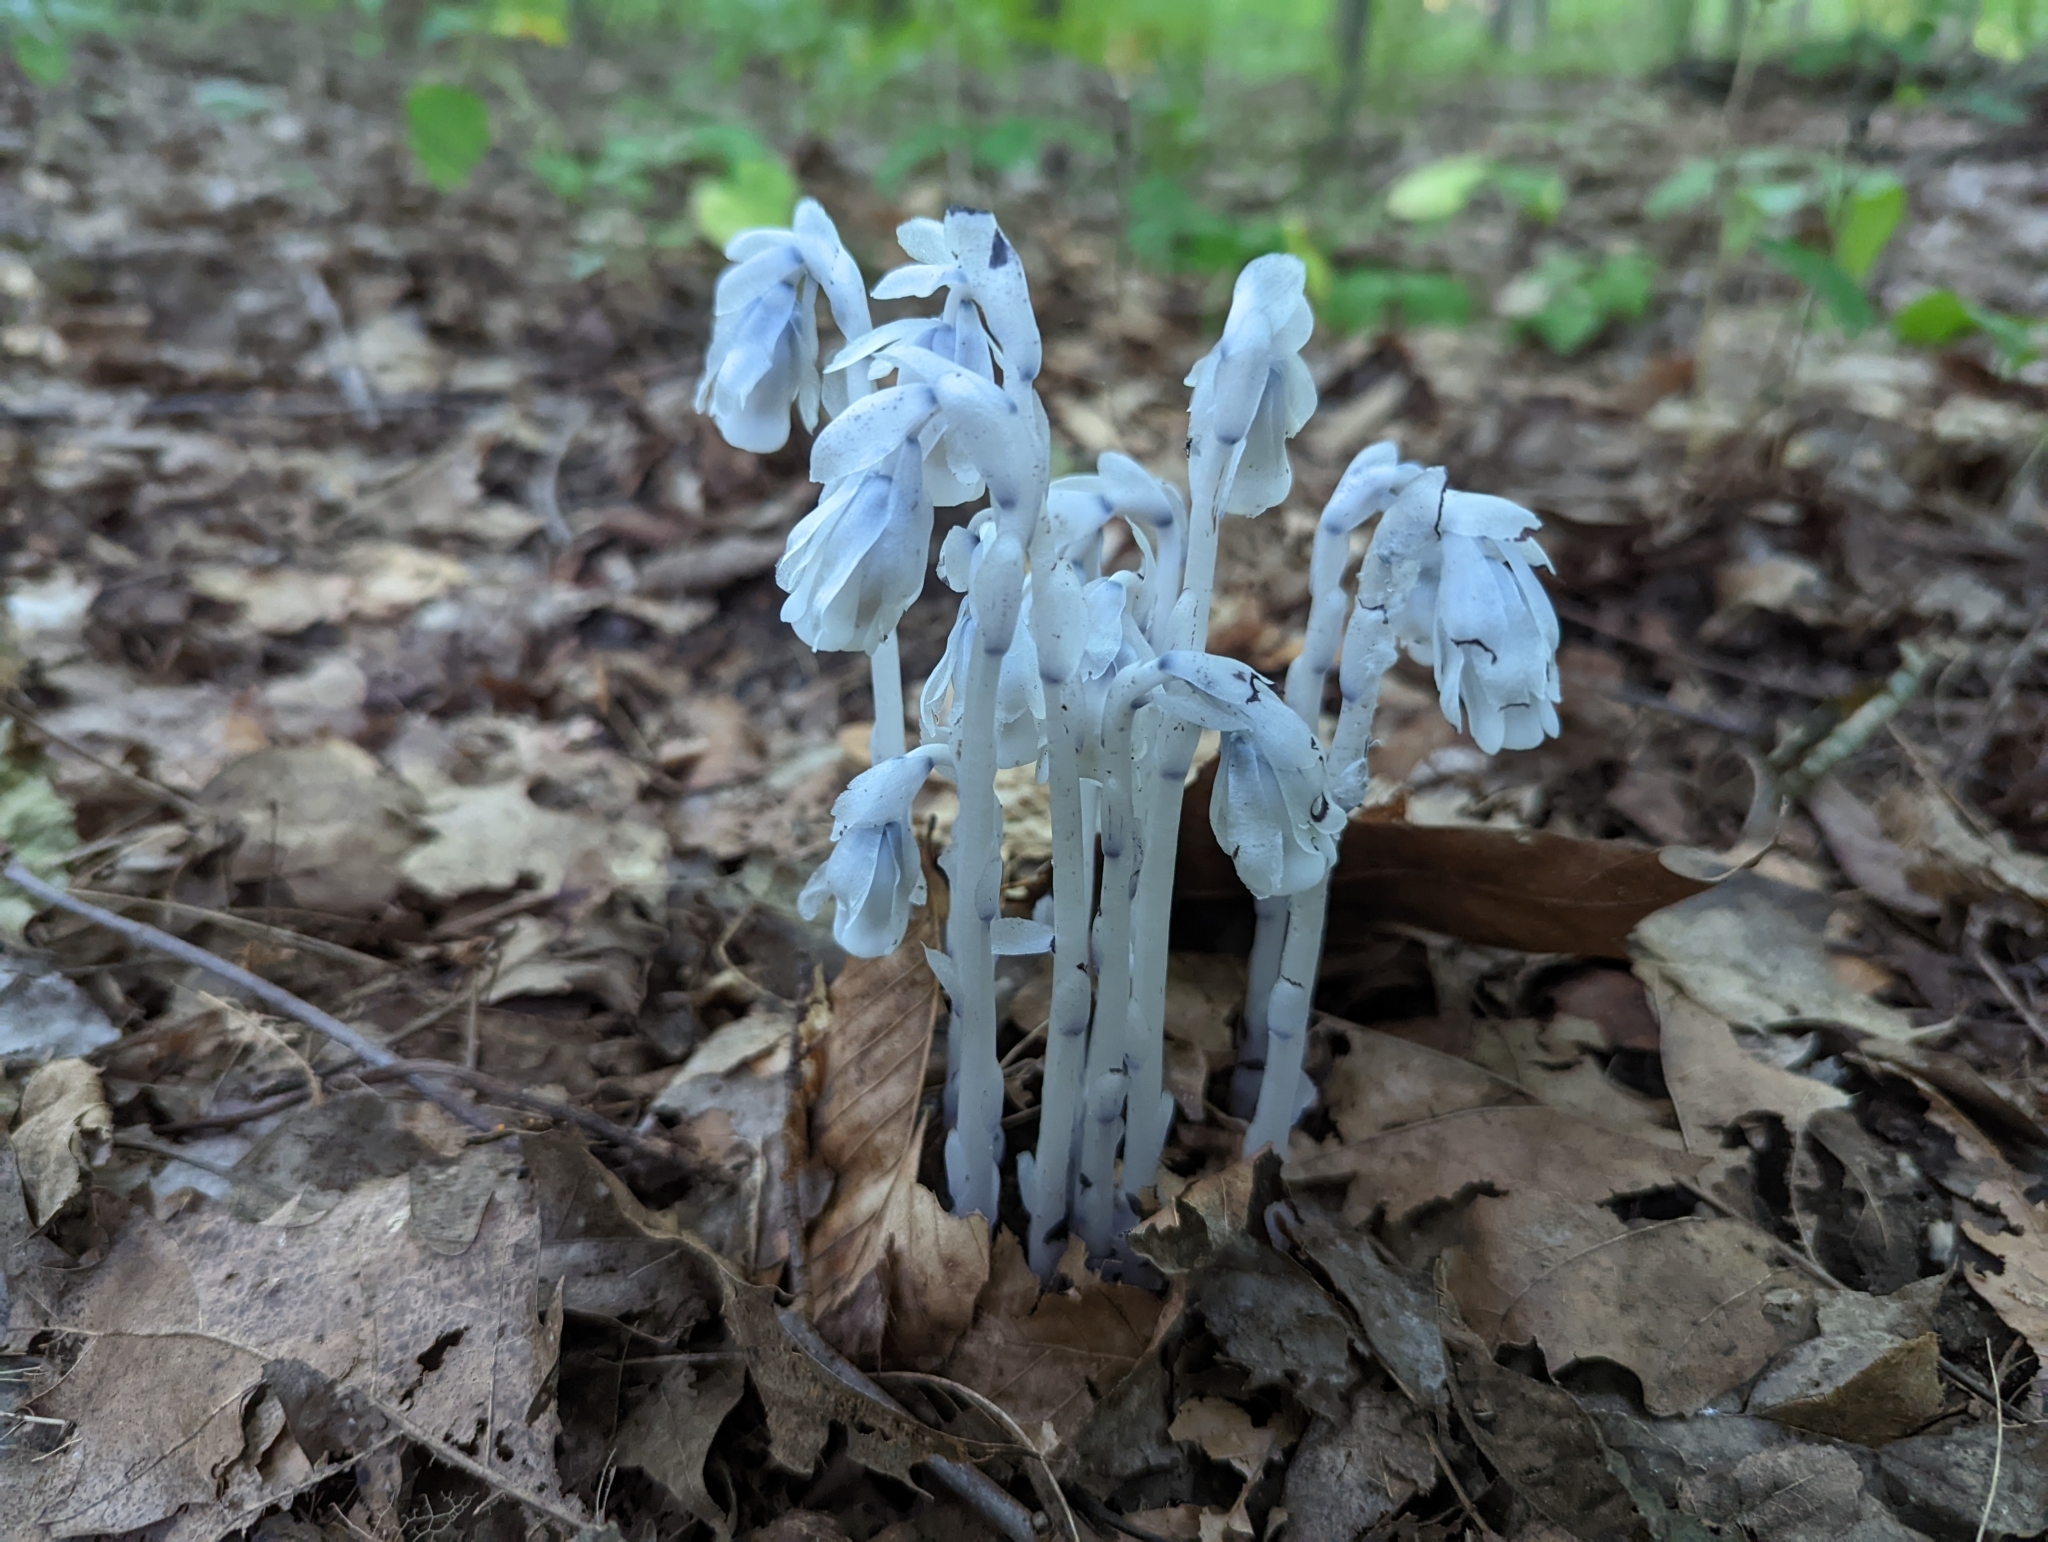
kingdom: Plantae
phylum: Tracheophyta
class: Magnoliopsida
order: Ericales
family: Ericaceae
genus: Monotropa
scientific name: Monotropa uniflora
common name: Convulsion root
